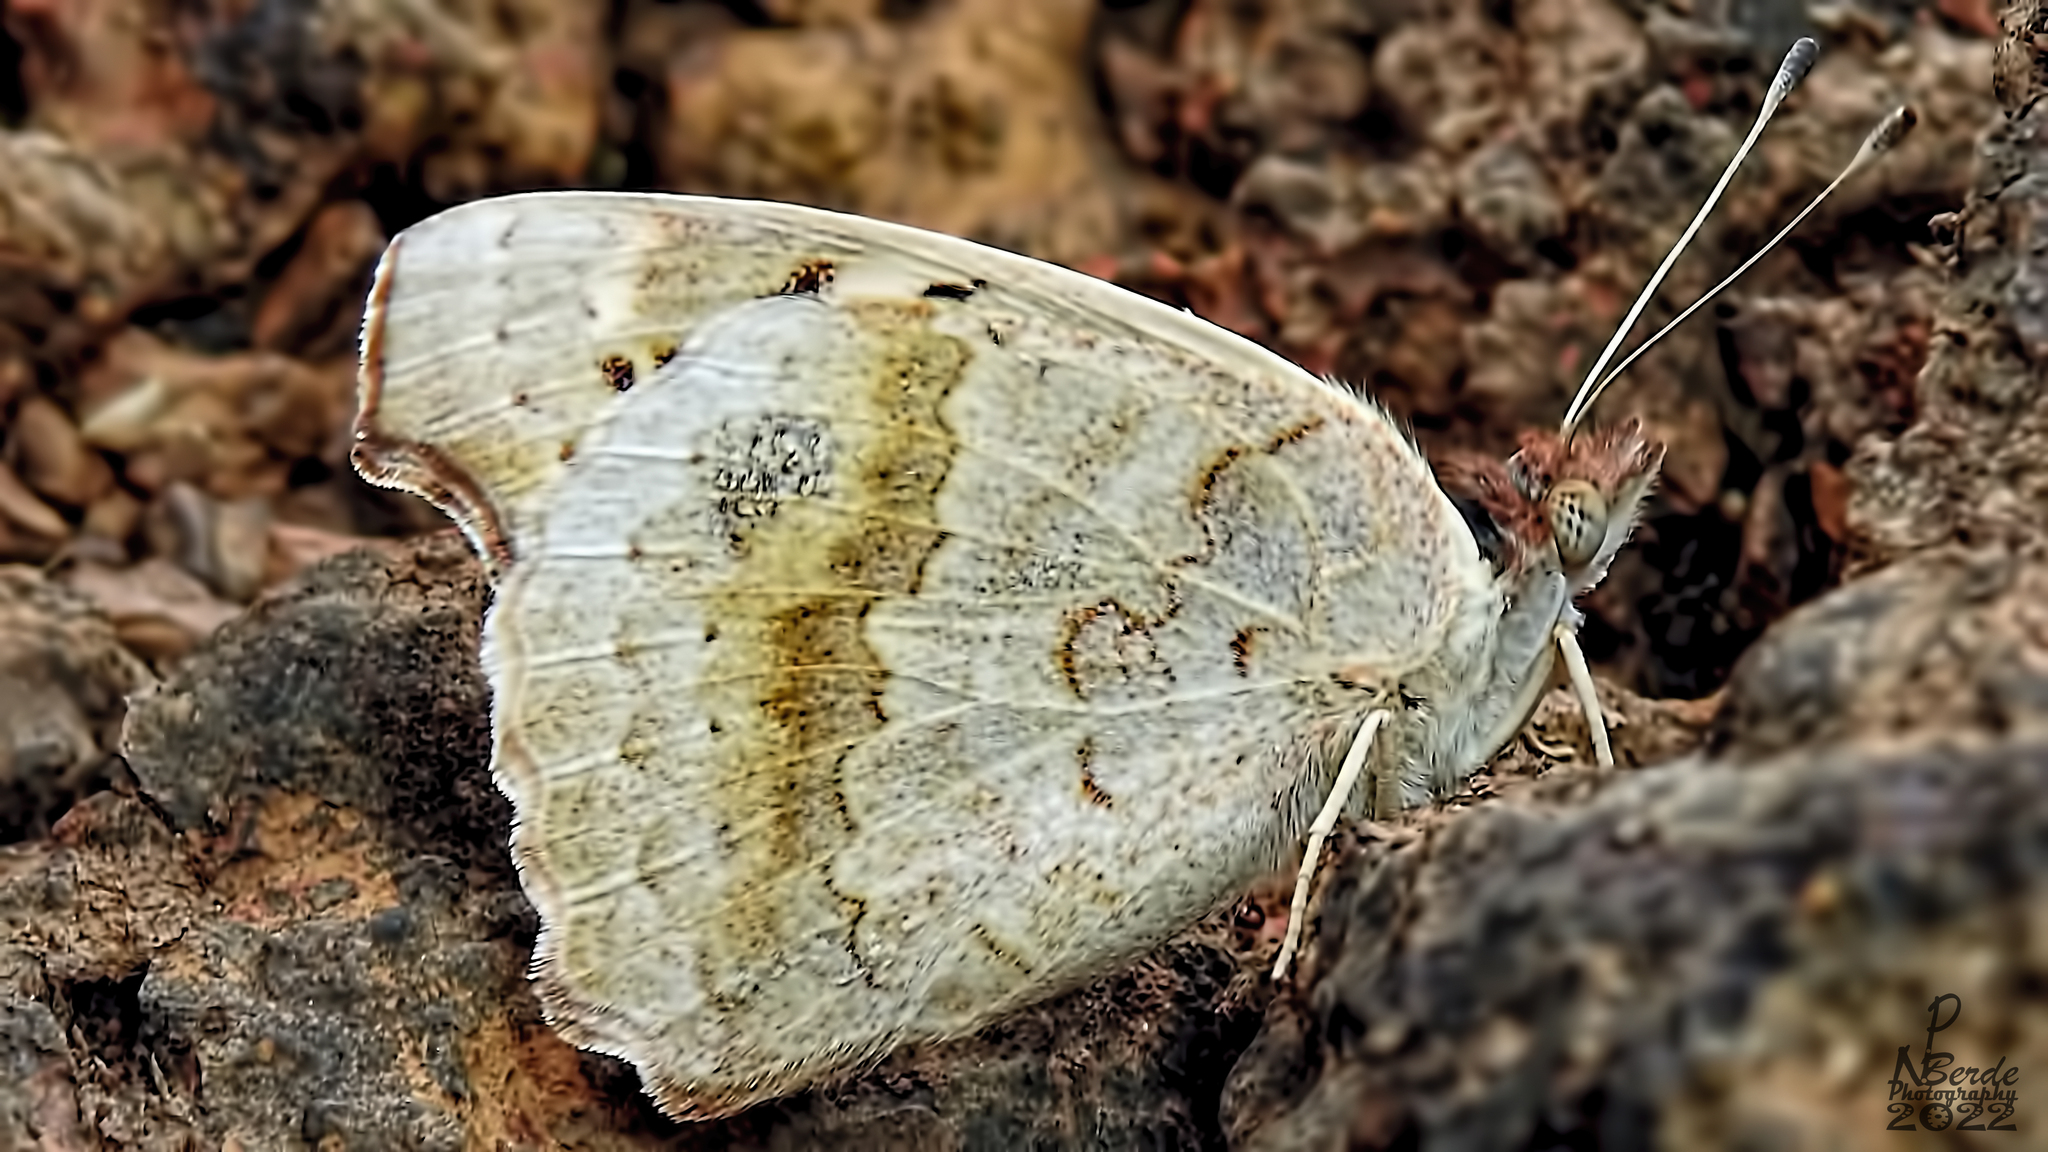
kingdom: Animalia
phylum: Arthropoda
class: Insecta
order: Lepidoptera
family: Nymphalidae
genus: Junonia
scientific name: Junonia orithya
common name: Blue pansy
